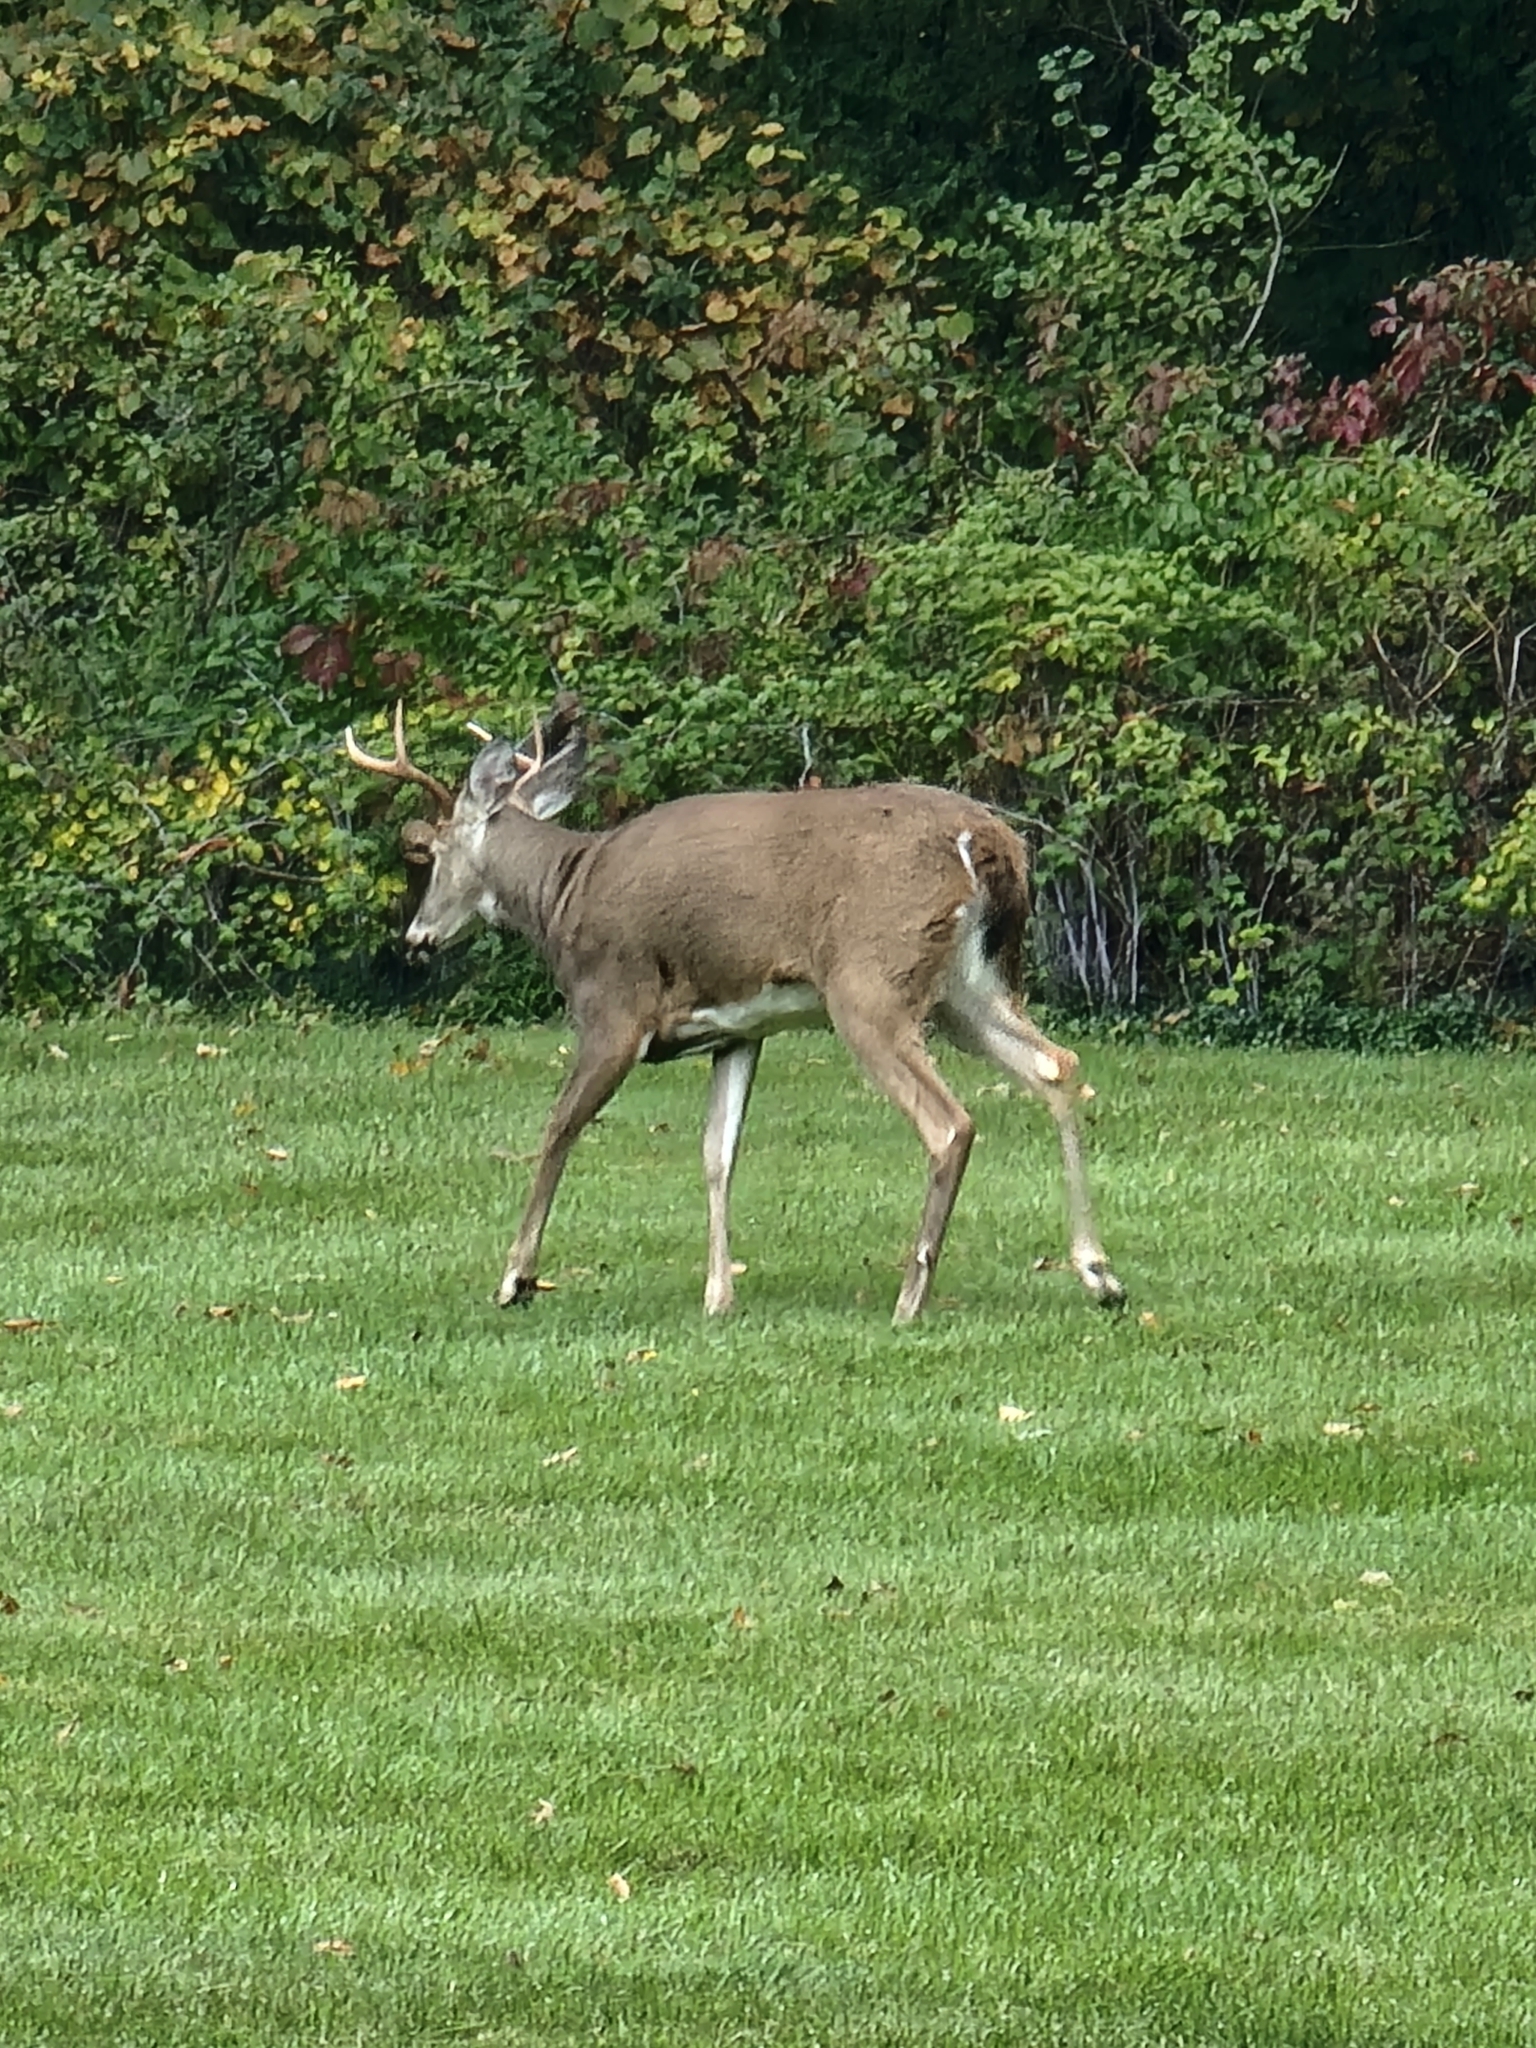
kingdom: Animalia
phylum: Chordata
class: Mammalia
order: Artiodactyla
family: Cervidae
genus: Odocoileus
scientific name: Odocoileus virginianus
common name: White-tailed deer
